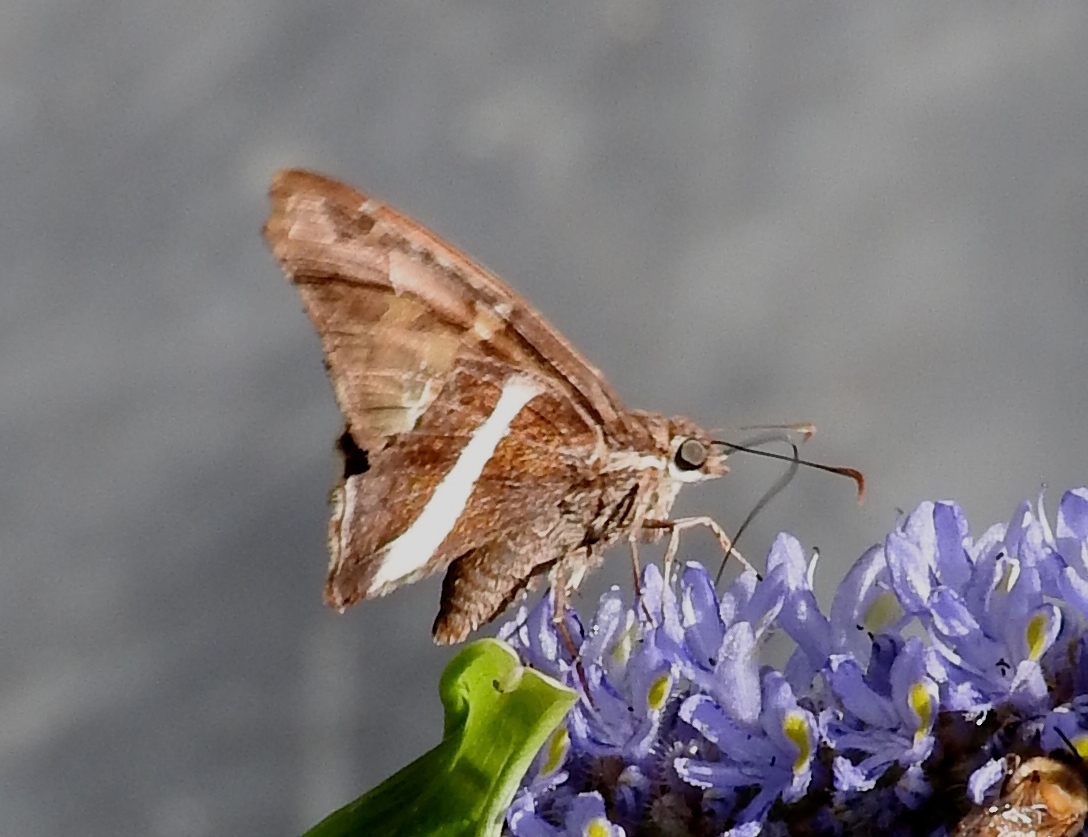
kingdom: Animalia
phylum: Arthropoda
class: Insecta
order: Lepidoptera
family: Hesperiidae
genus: Chioides
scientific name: Chioides catillus
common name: Silverbanded skipper
